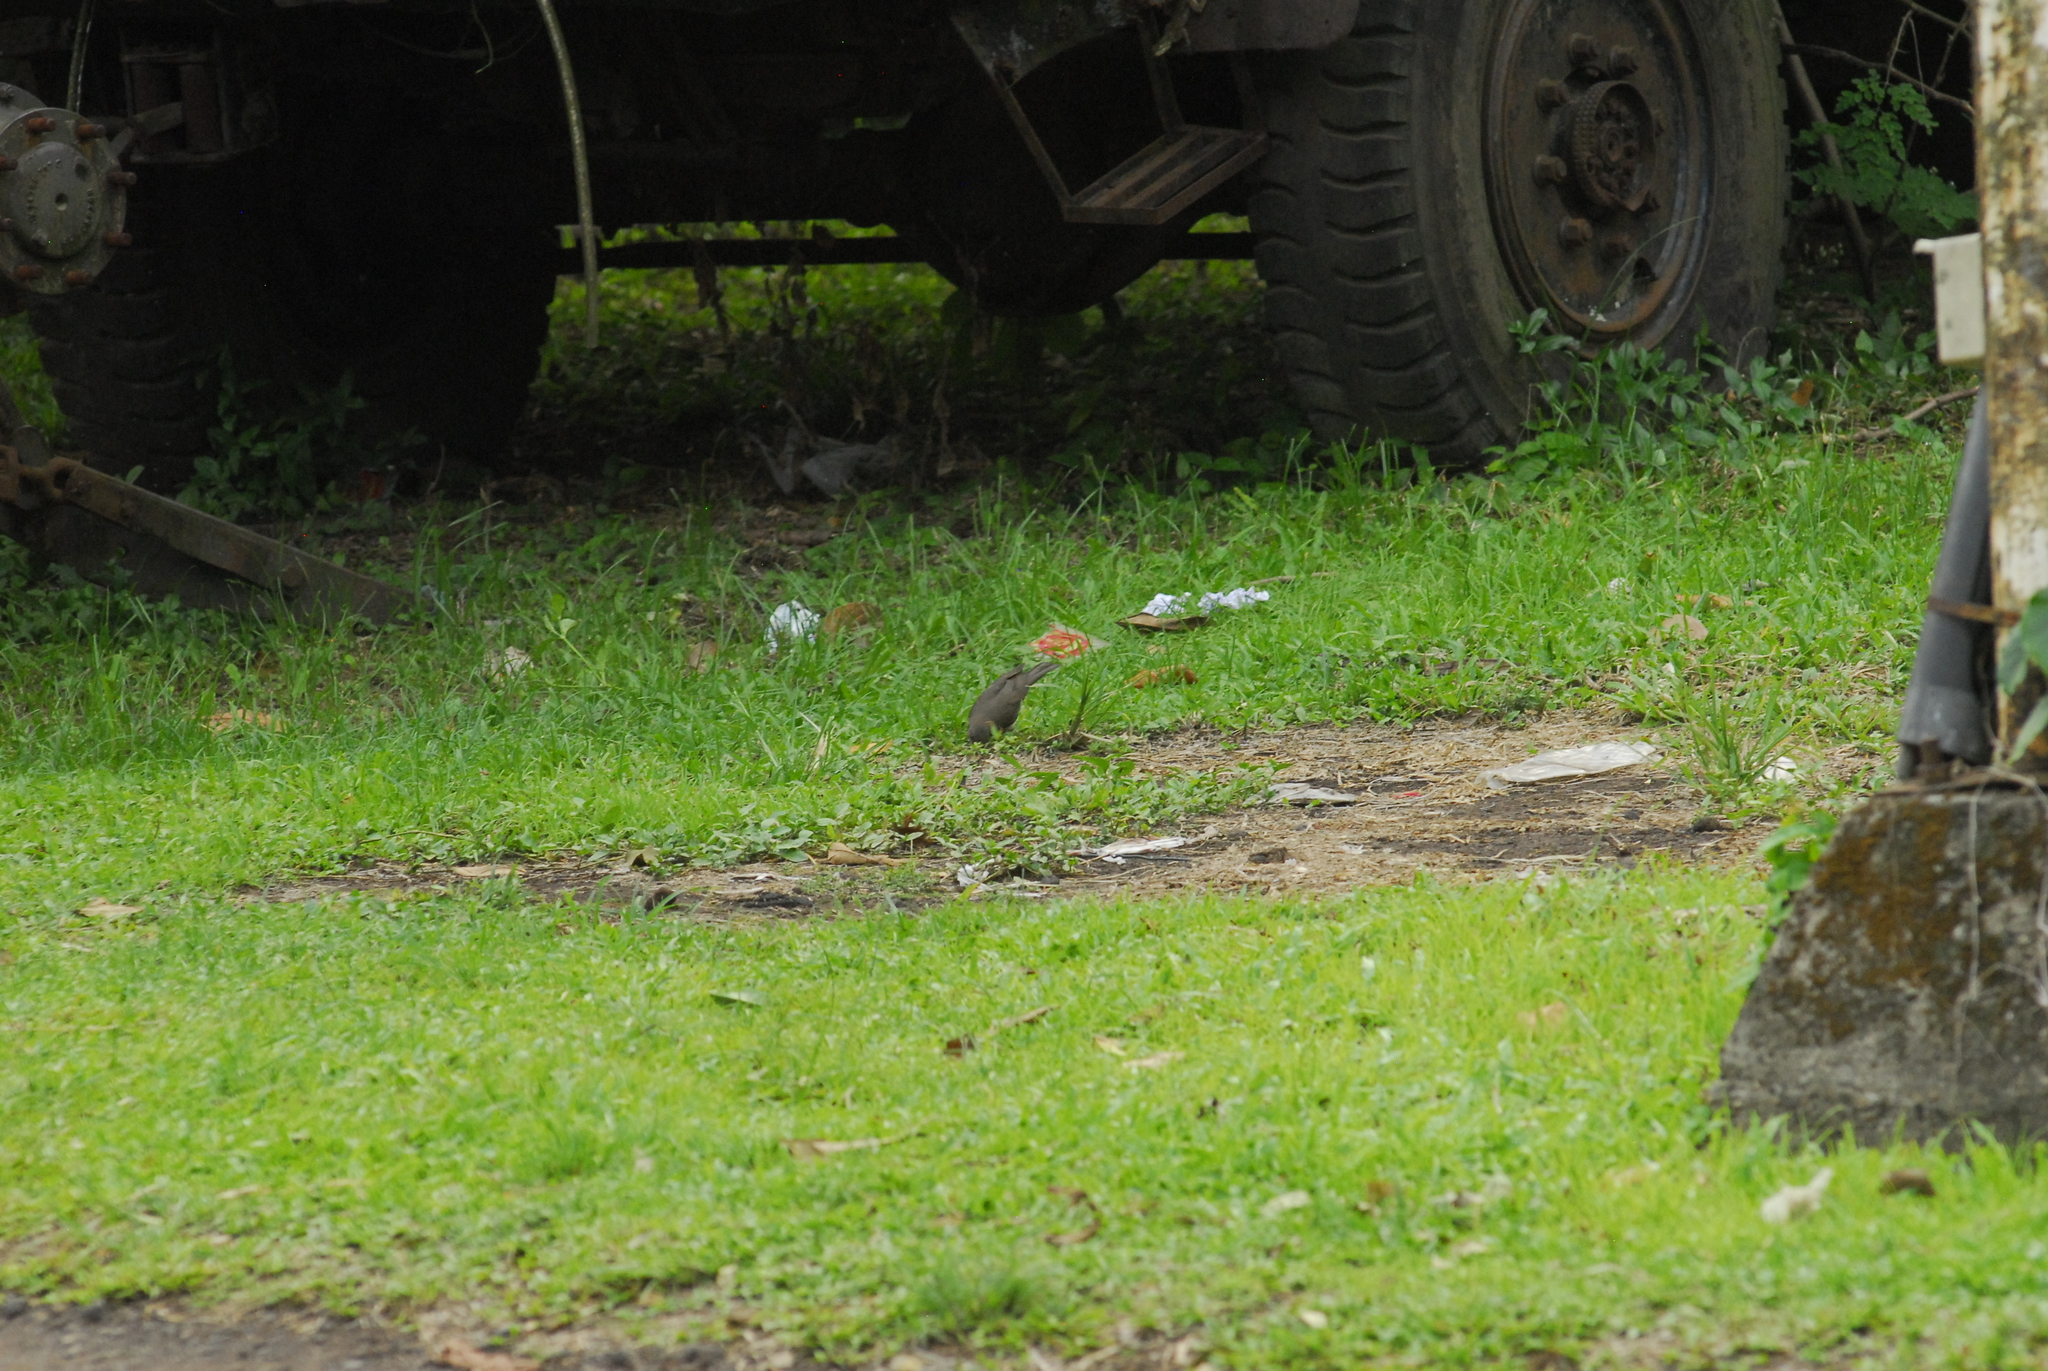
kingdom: Animalia
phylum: Chordata
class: Aves
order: Passeriformes
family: Turdidae
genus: Turdus
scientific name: Turdus pelios
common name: African thrush
